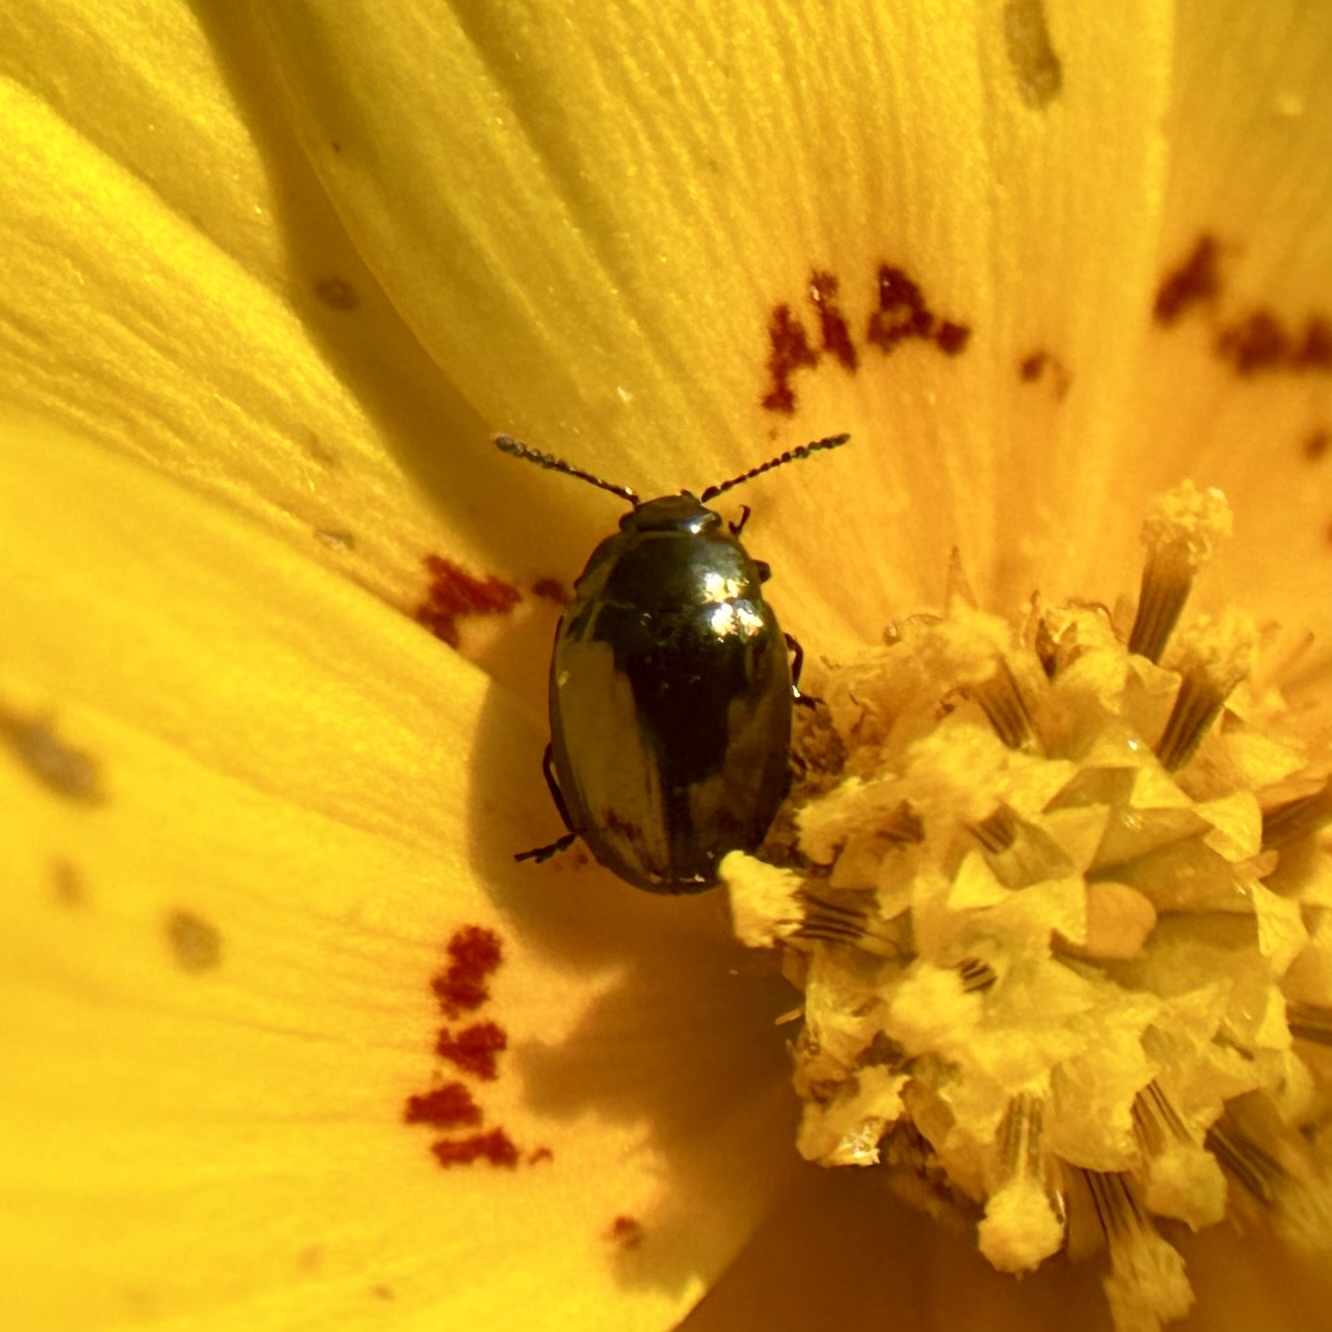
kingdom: Animalia
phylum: Arthropoda
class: Insecta
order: Coleoptera
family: Chrysomelidae
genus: Phaedon
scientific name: Phaedon desotonis
